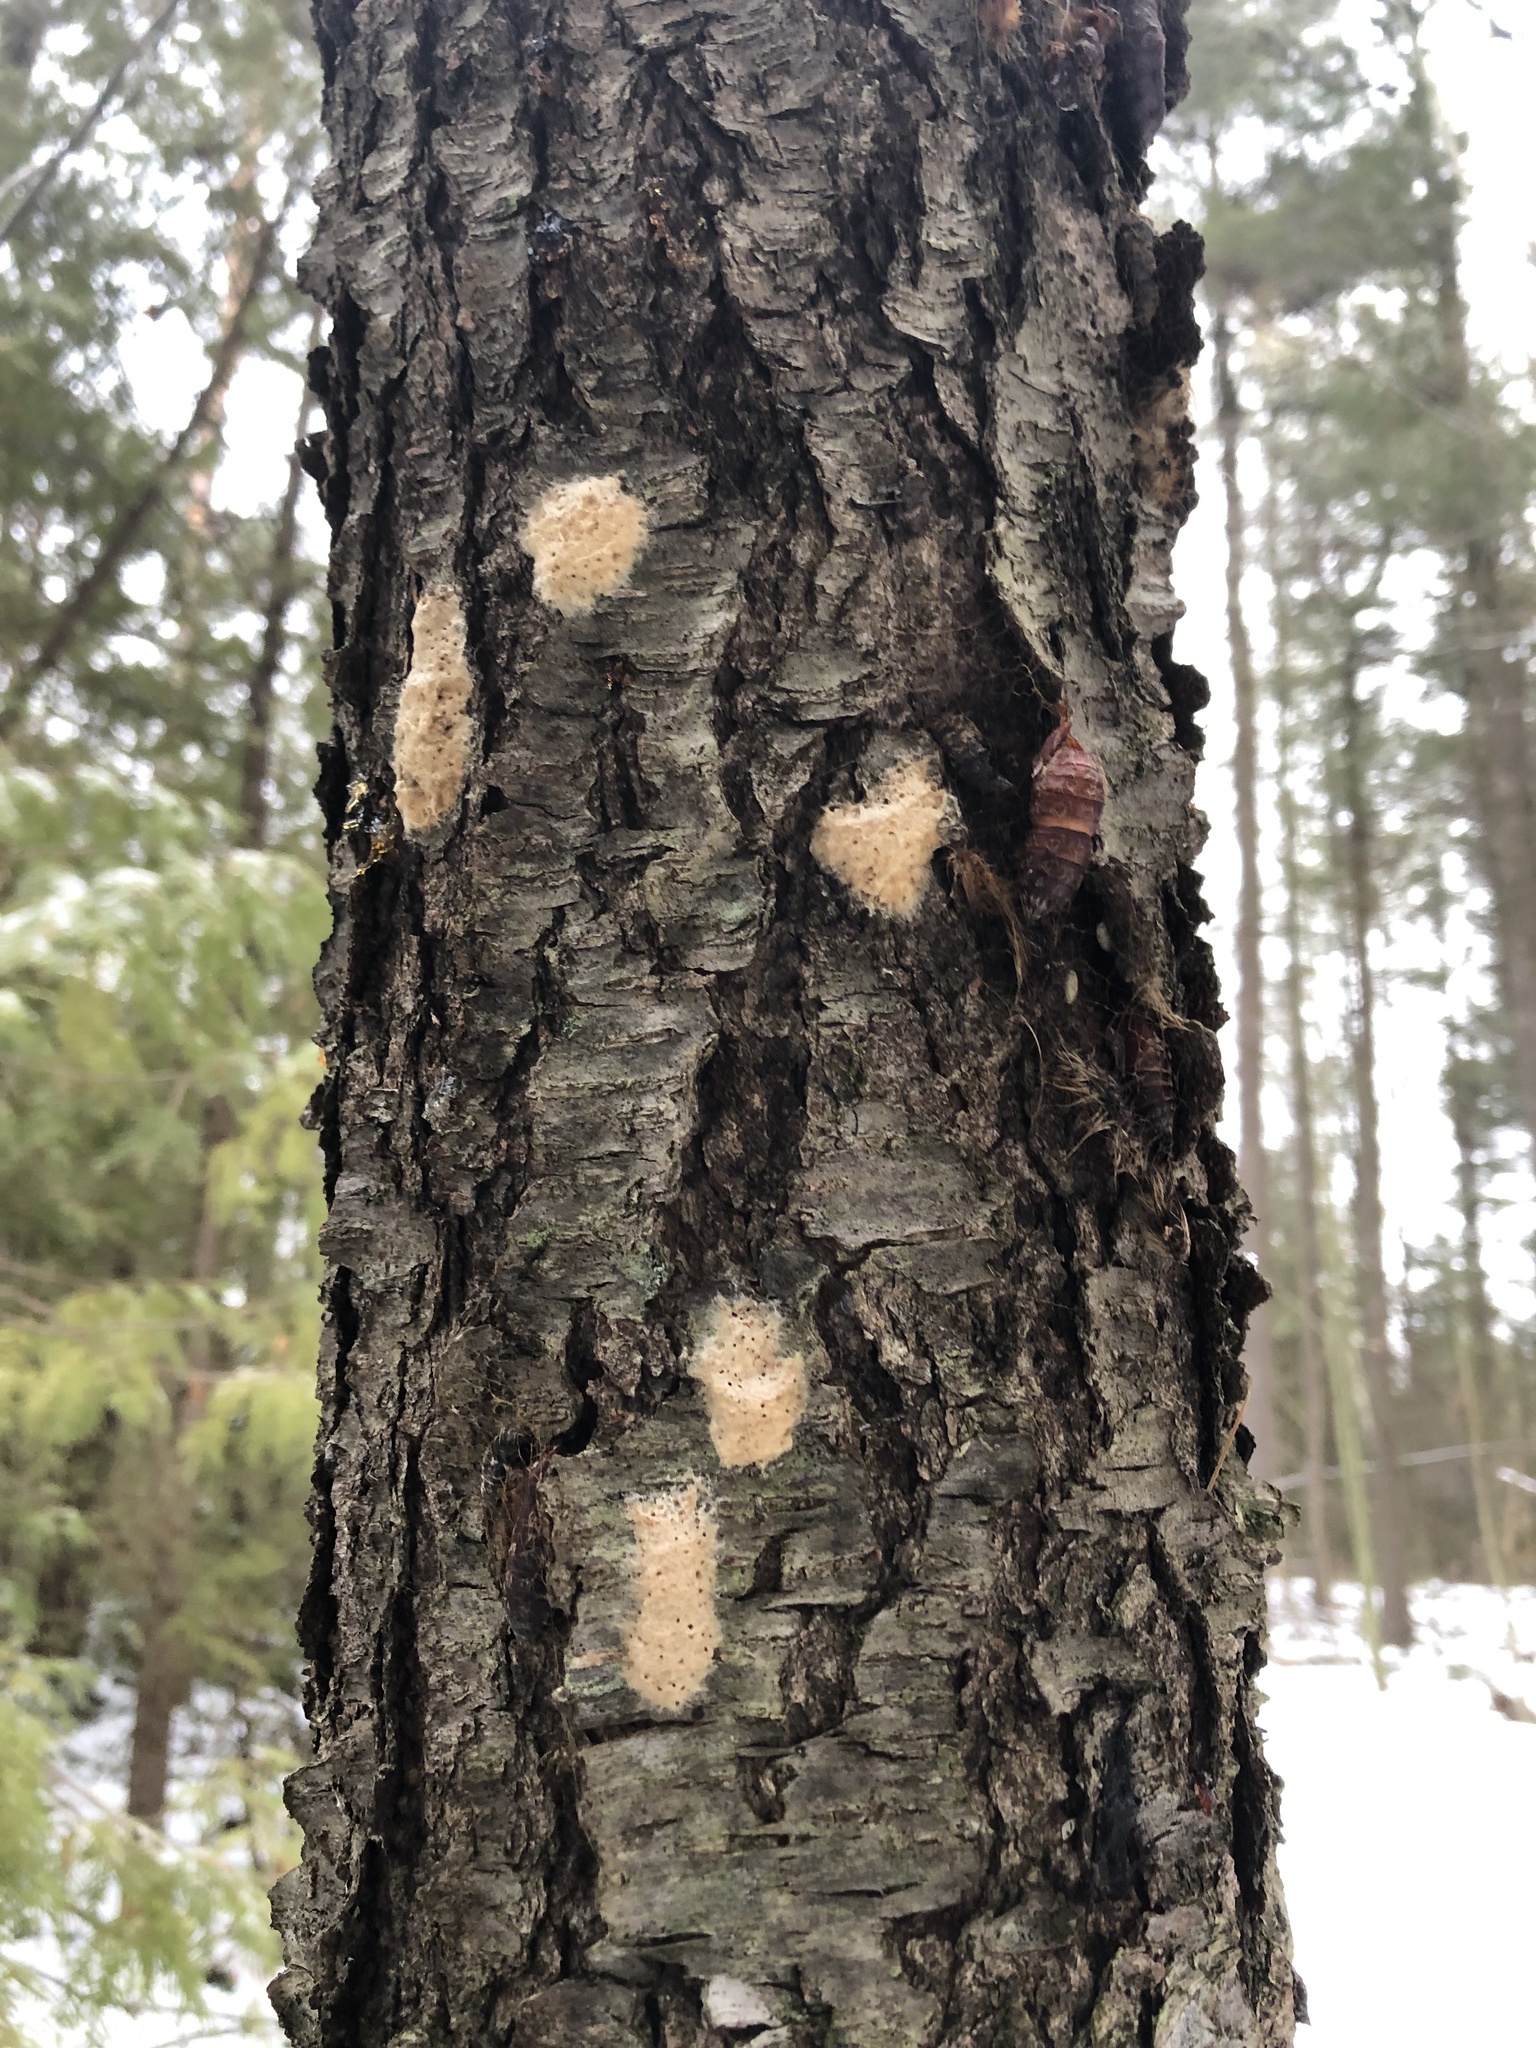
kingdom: Animalia
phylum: Arthropoda
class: Insecta
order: Lepidoptera
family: Erebidae
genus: Lymantria
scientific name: Lymantria dispar
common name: Gypsy moth
